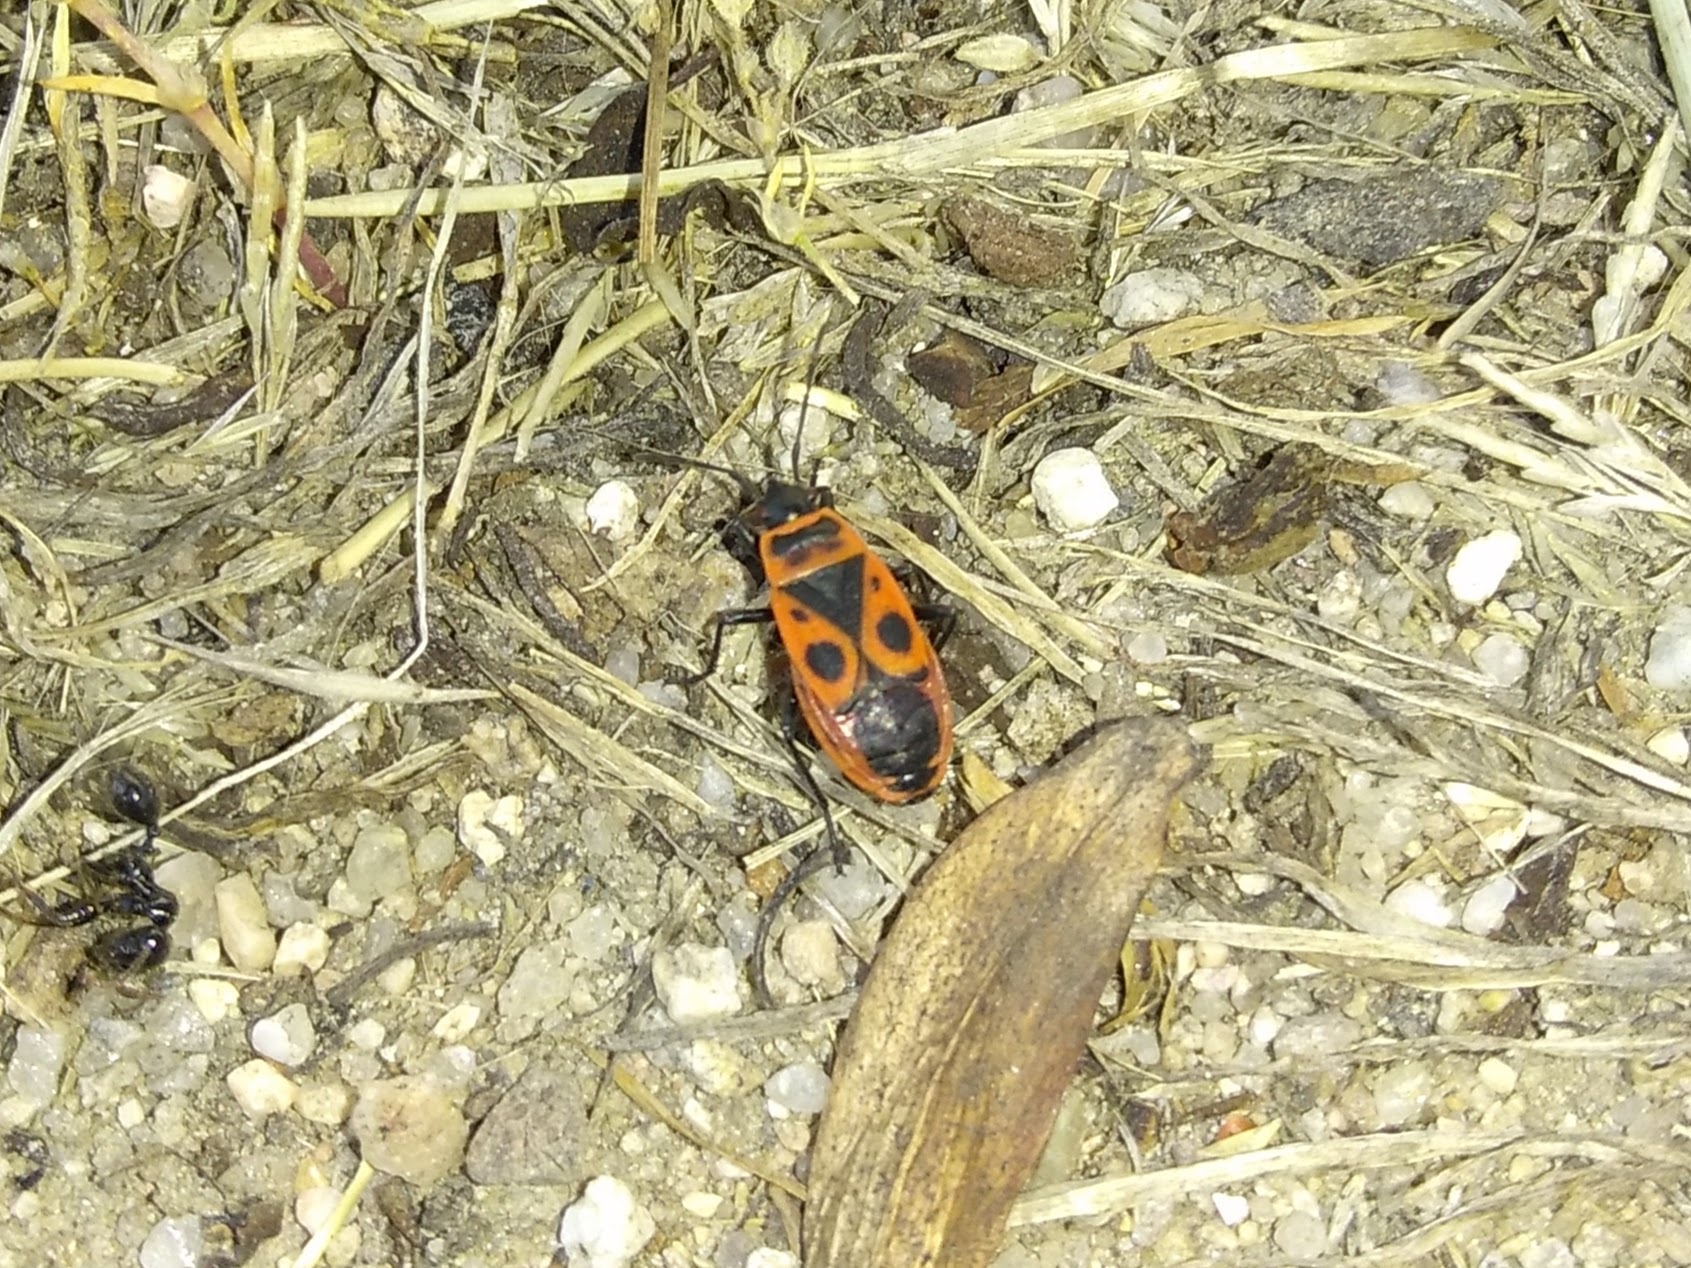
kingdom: Animalia
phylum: Arthropoda
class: Insecta
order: Hemiptera
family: Pyrrhocoridae
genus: Pyrrhocoris
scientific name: Pyrrhocoris apterus
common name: Firebug
